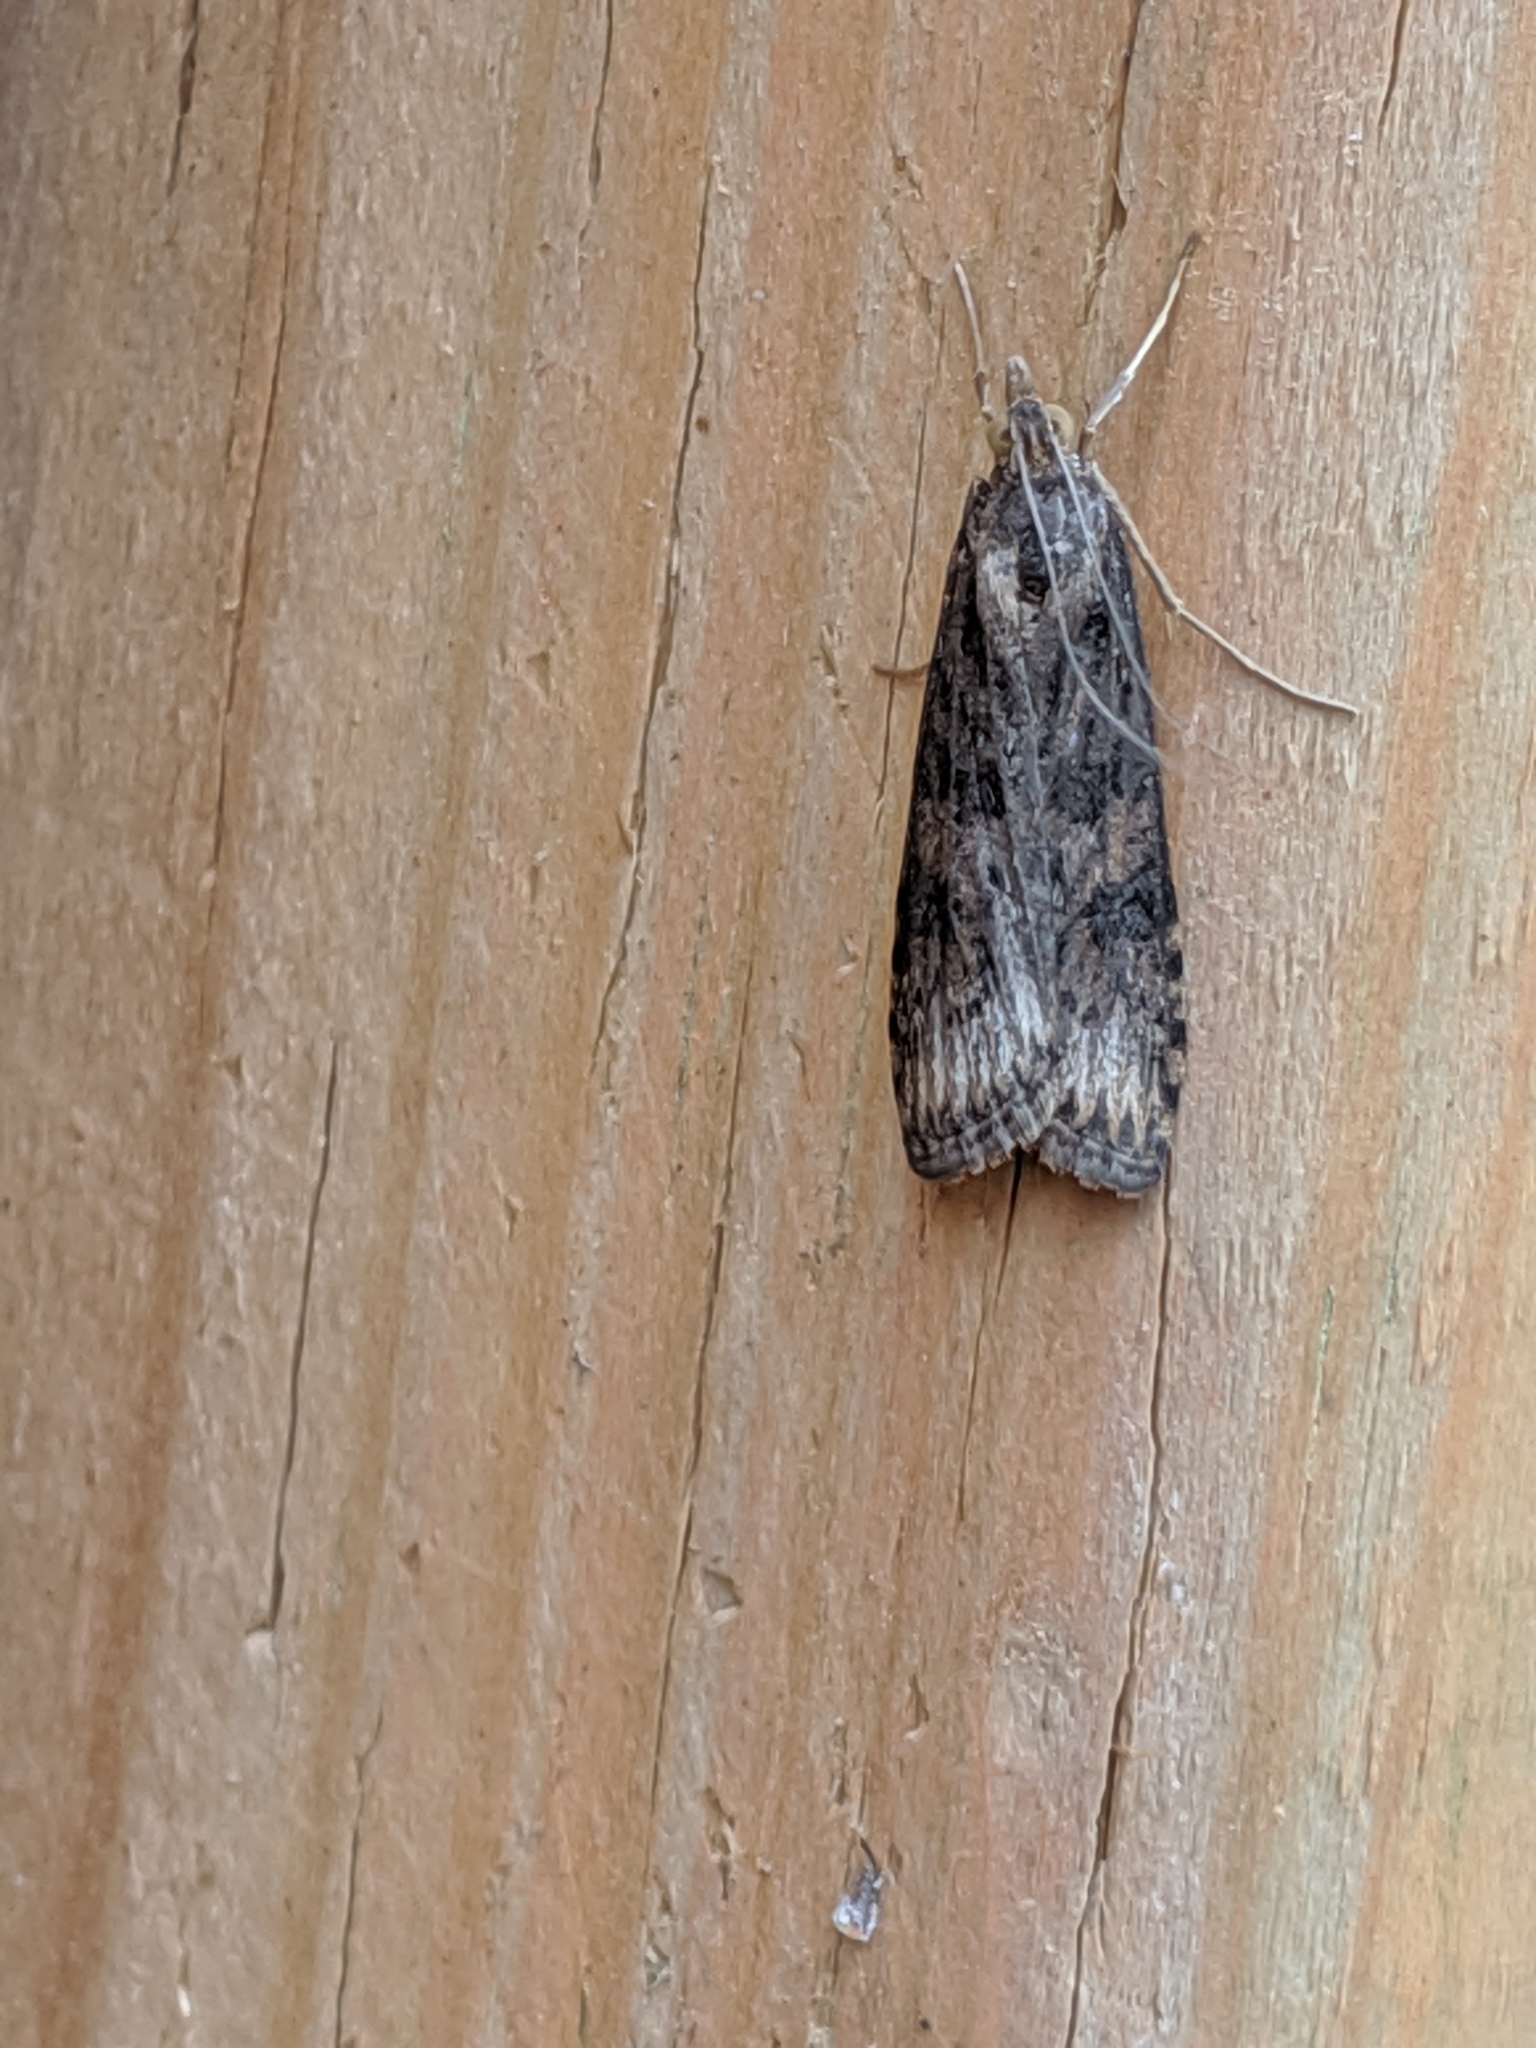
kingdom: Animalia
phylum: Arthropoda
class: Insecta
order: Lepidoptera
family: Crambidae
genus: Nomophila
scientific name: Nomophila nearctica
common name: American rush veneer
